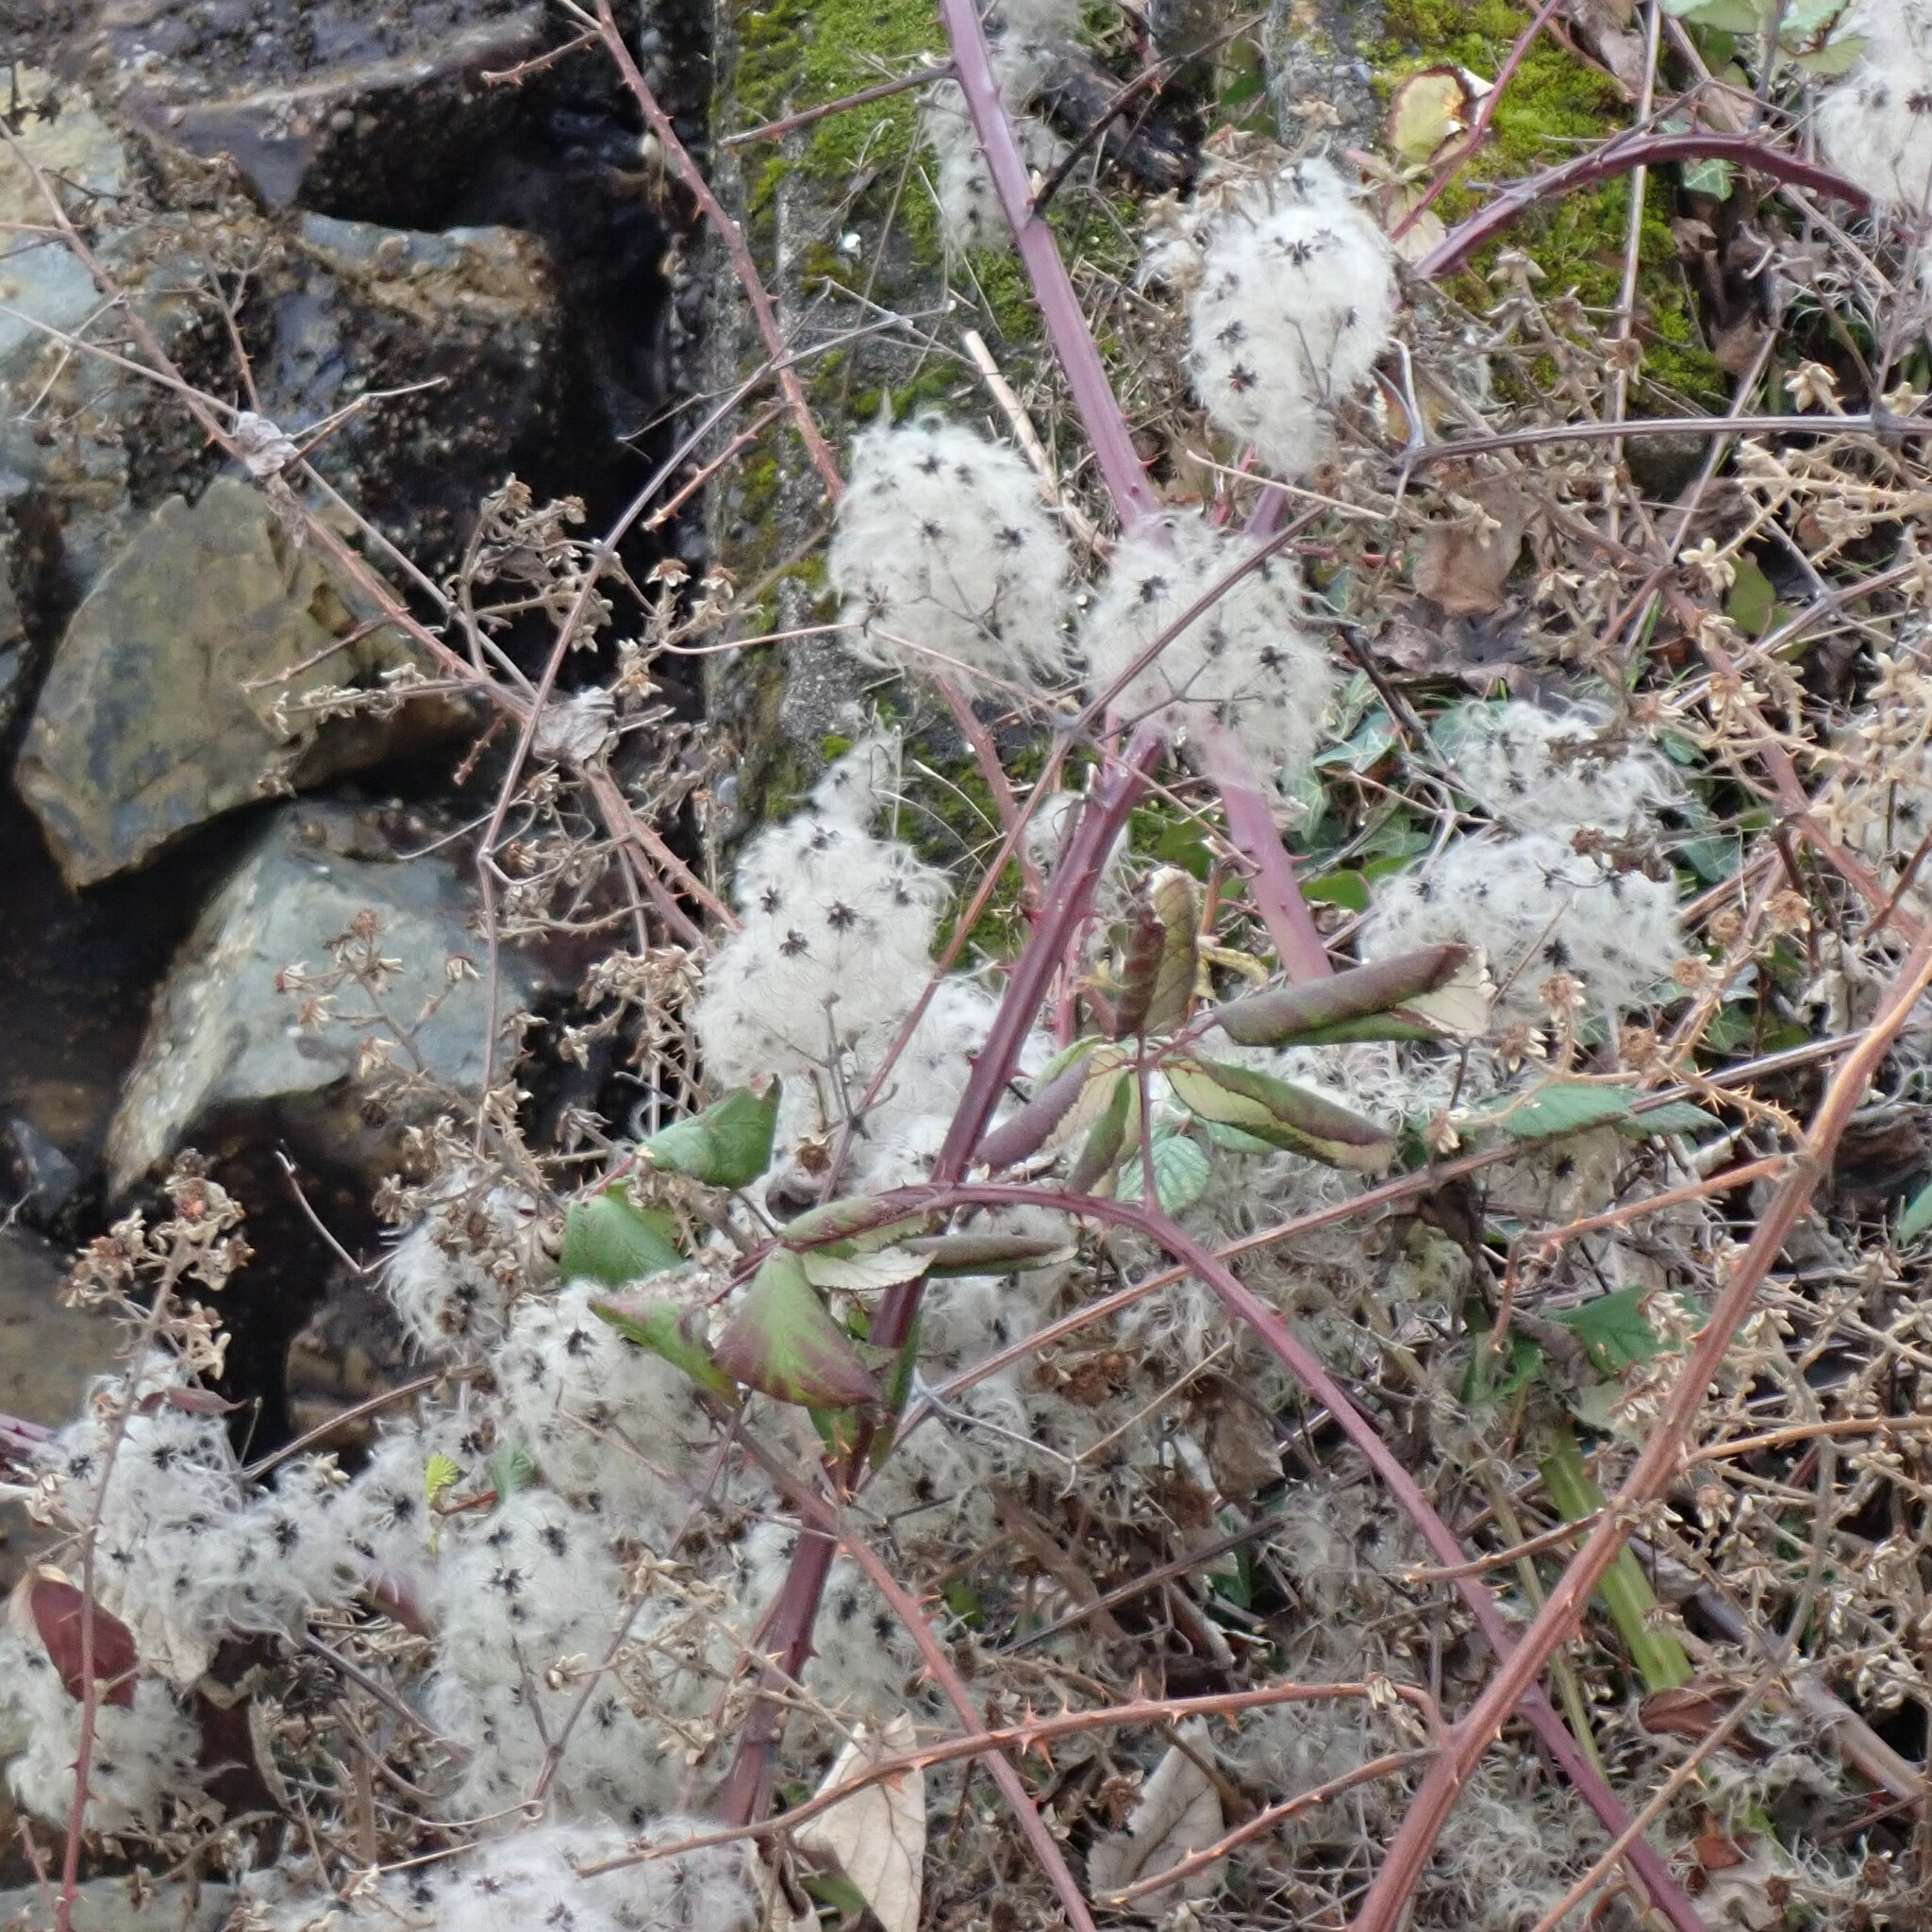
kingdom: Plantae
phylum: Tracheophyta
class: Magnoliopsida
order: Ranunculales
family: Ranunculaceae
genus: Clematis
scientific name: Clematis vitalba
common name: Evergreen clematis
